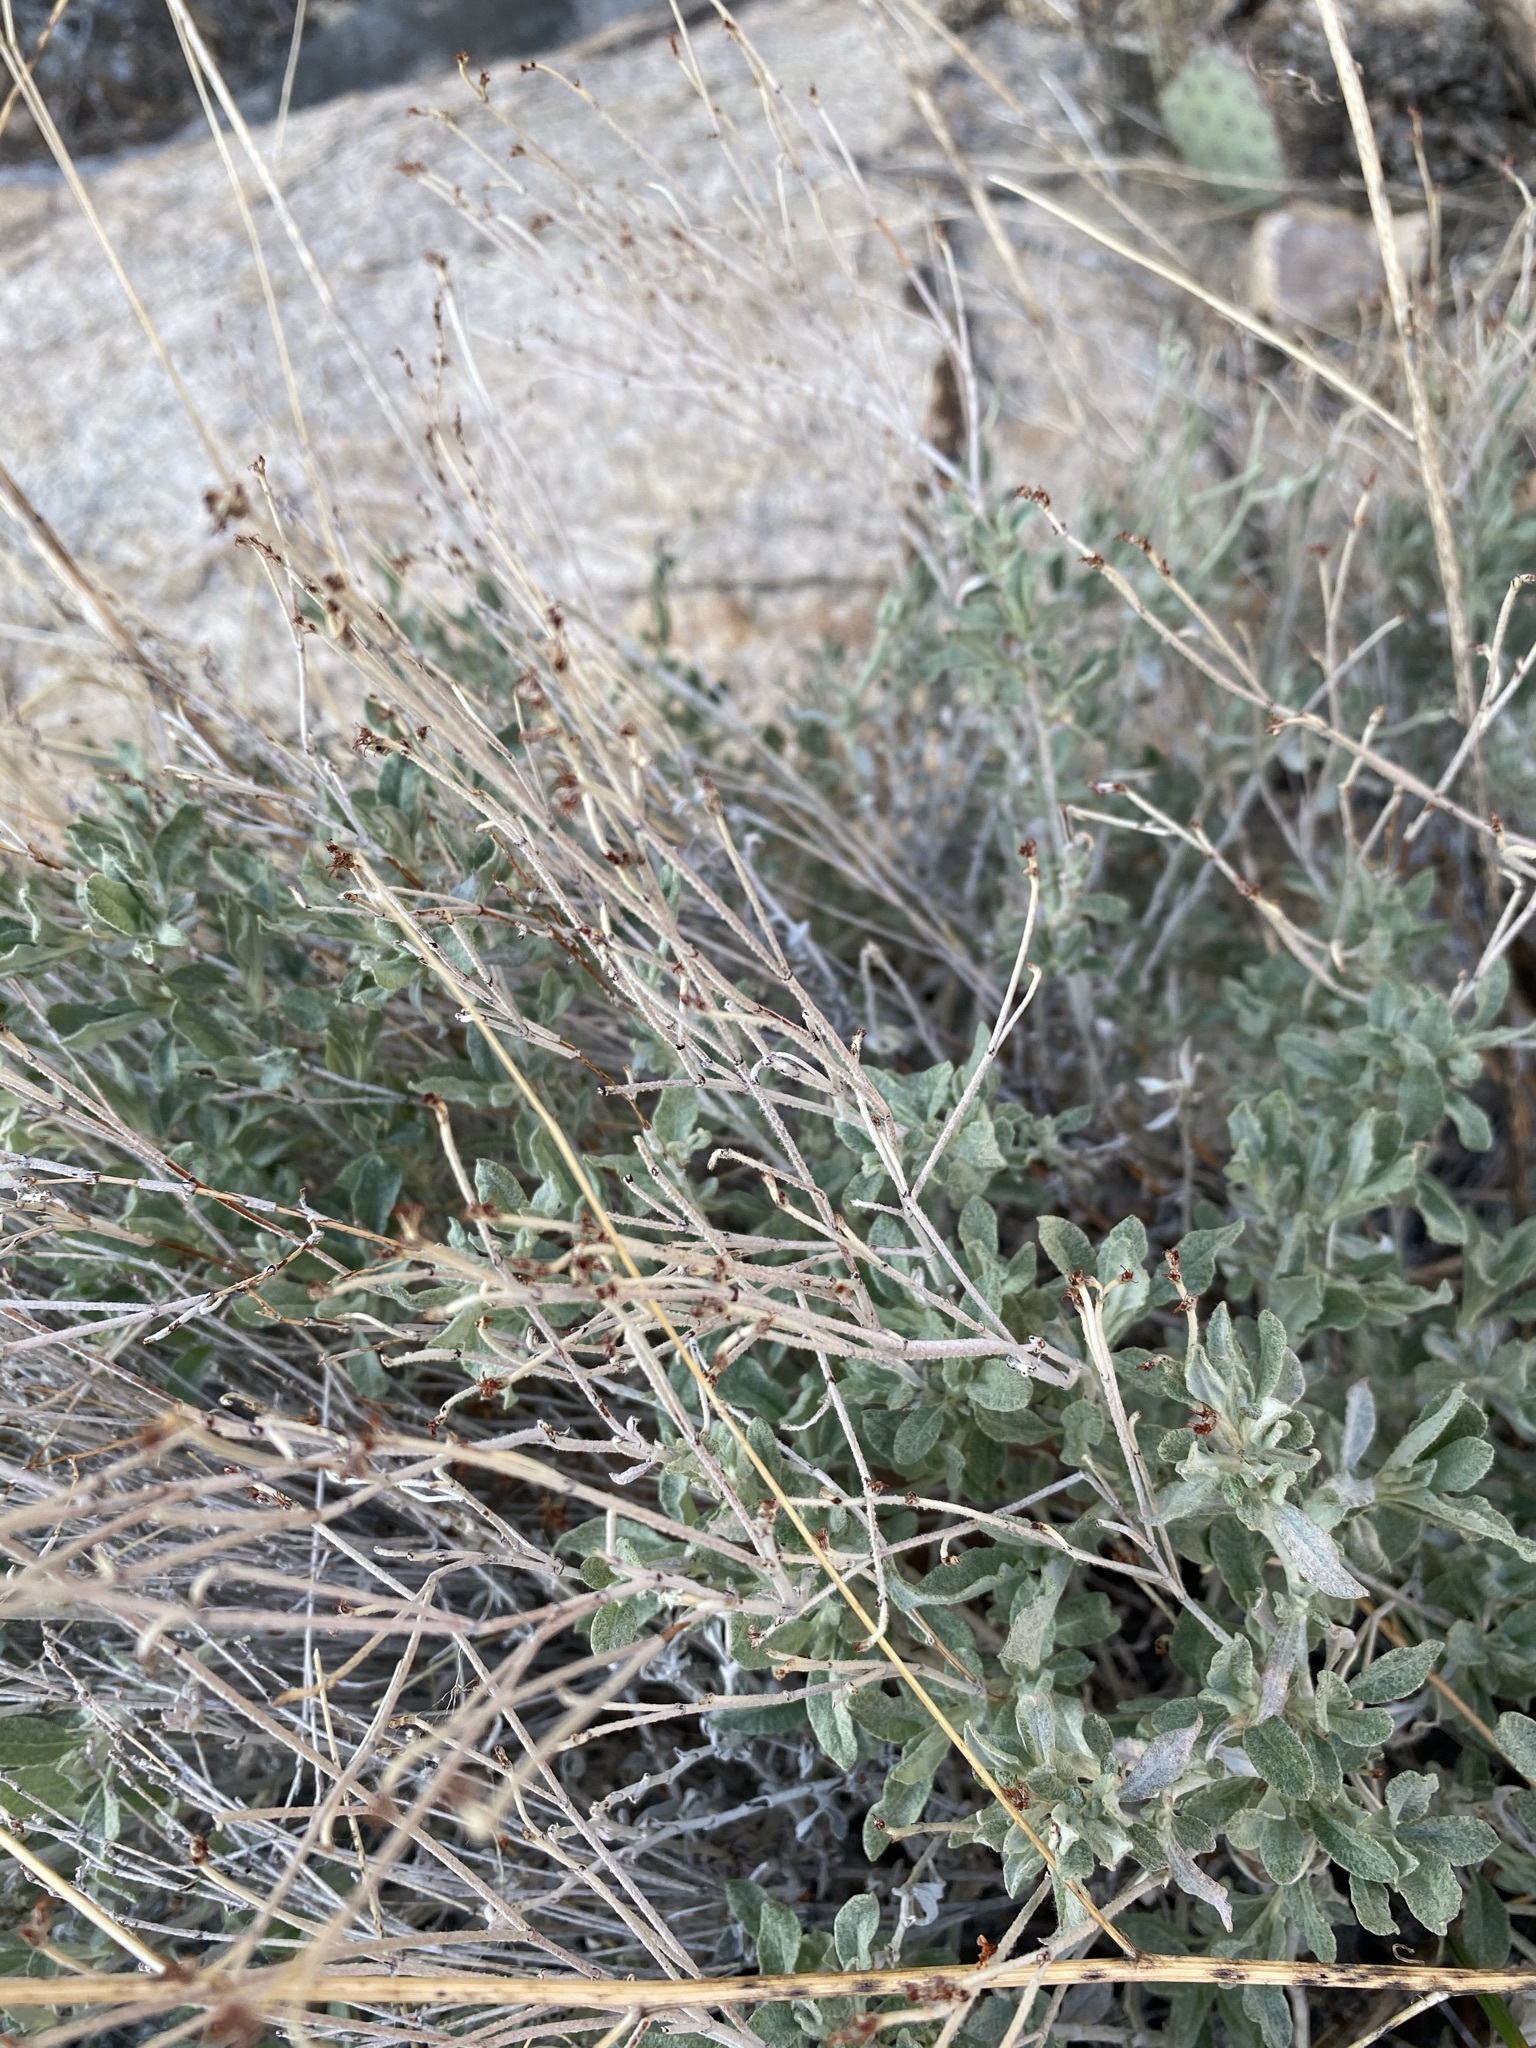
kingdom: Plantae
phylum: Tracheophyta
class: Magnoliopsida
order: Caryophyllales
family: Polygonaceae
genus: Eriogonum
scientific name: Eriogonum wrightii
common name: Bastard-sage
